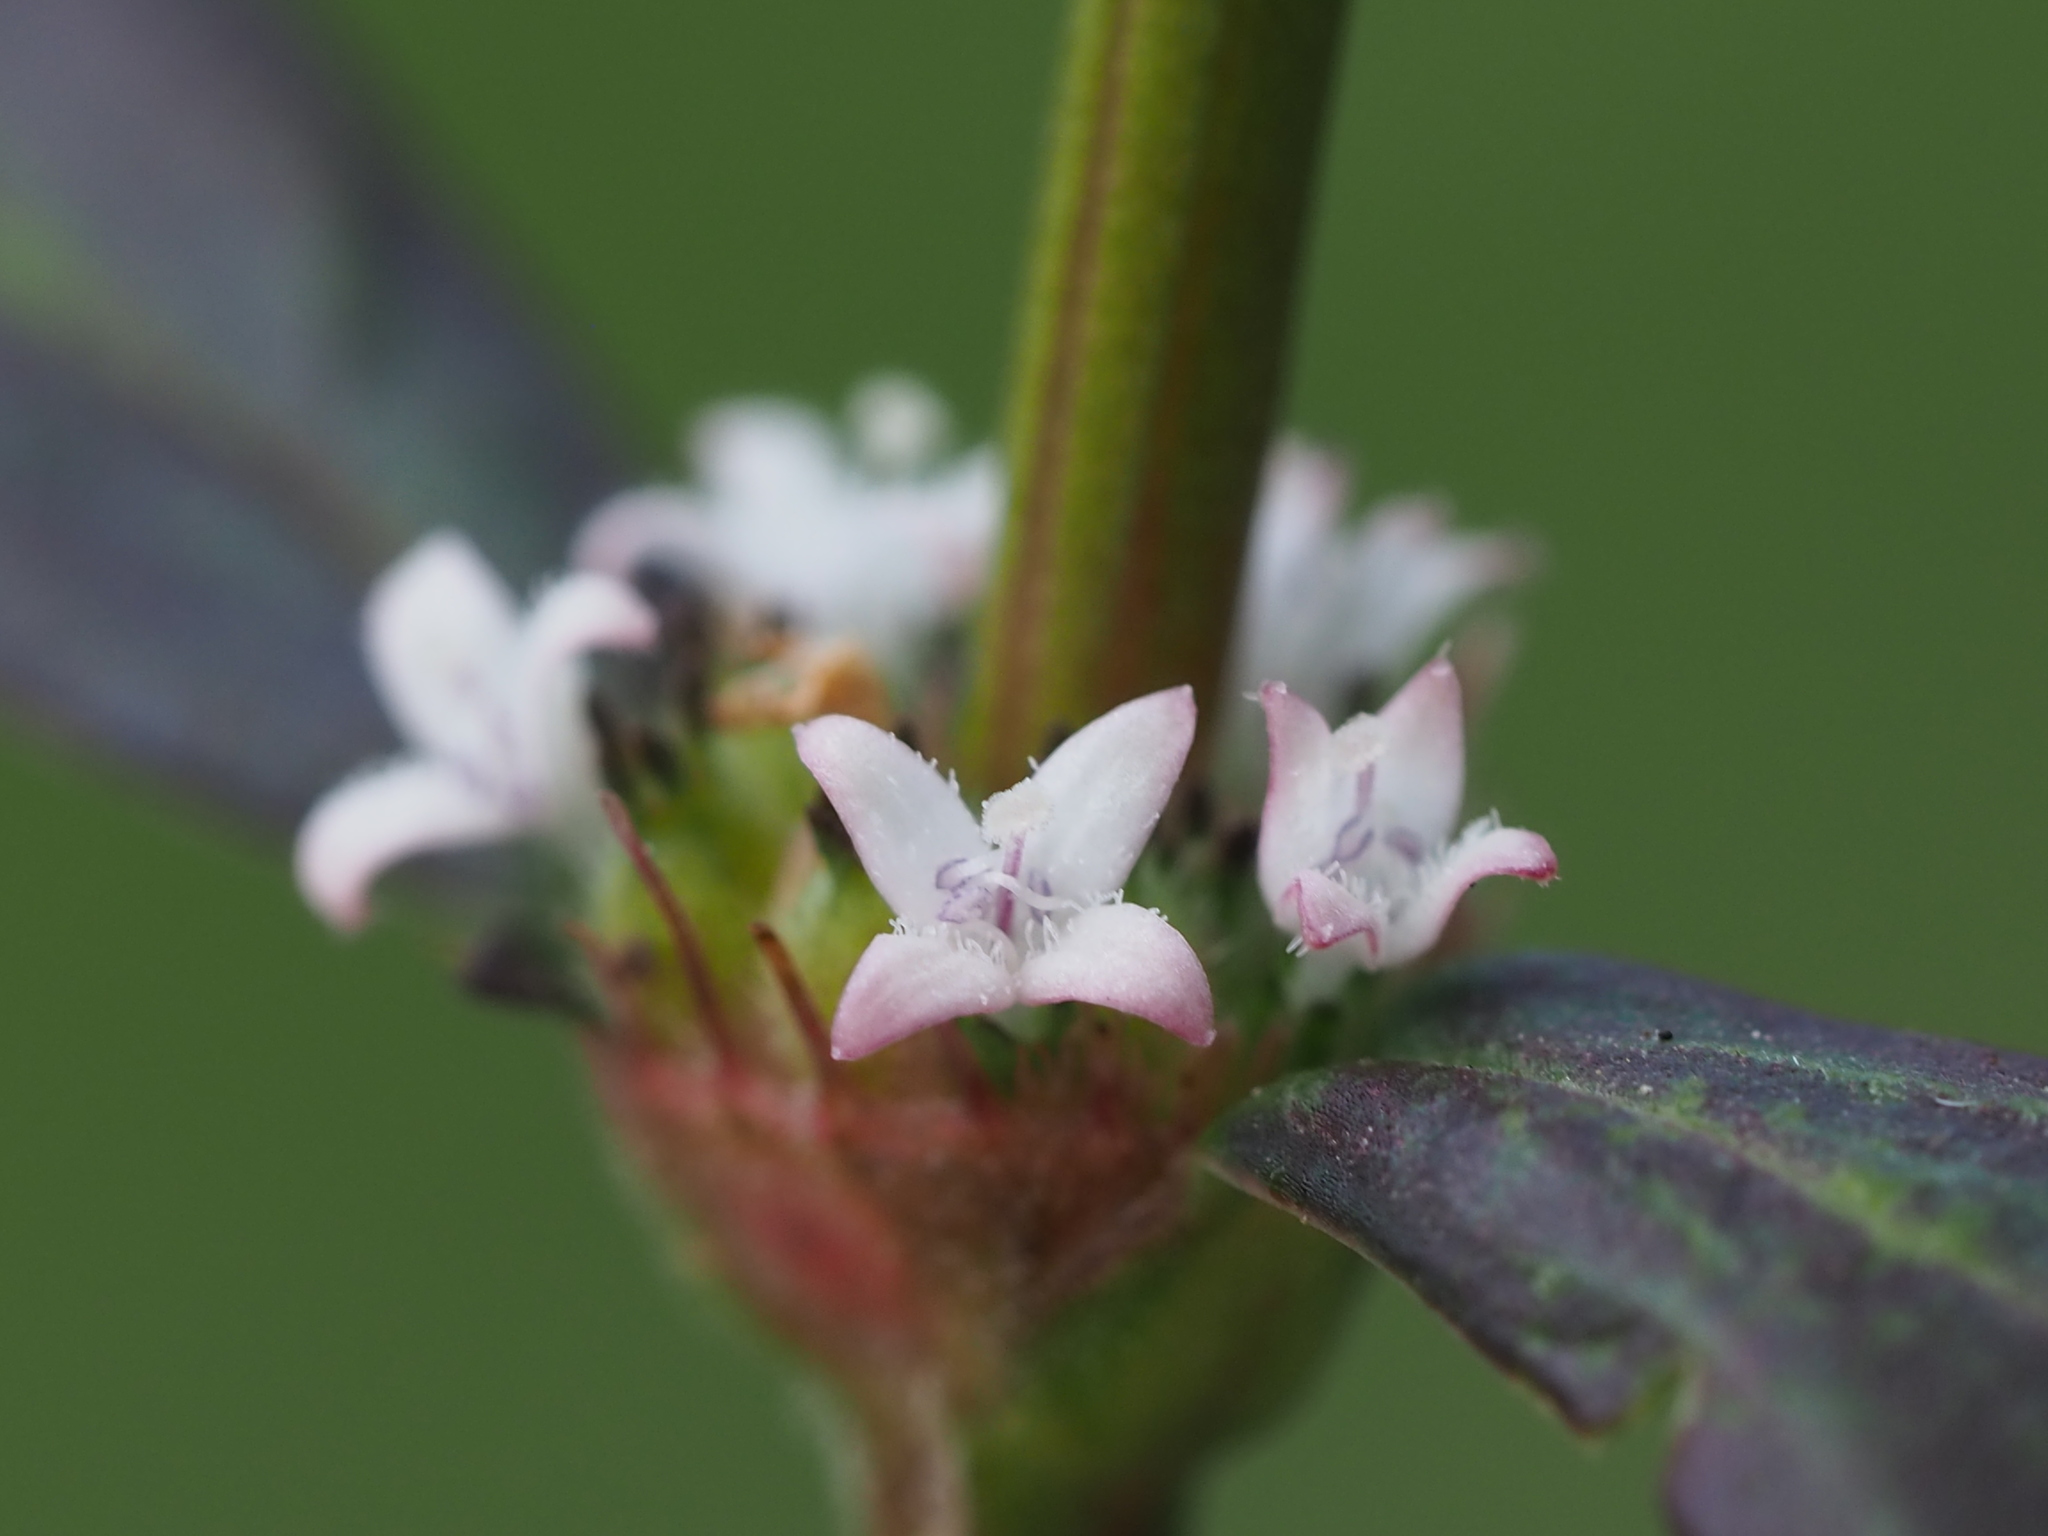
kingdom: Plantae
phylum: Tracheophyta
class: Magnoliopsida
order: Gentianales
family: Rubiaceae
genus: Spermacoce
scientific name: Spermacoce remota
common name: Woodland false buttonweed
